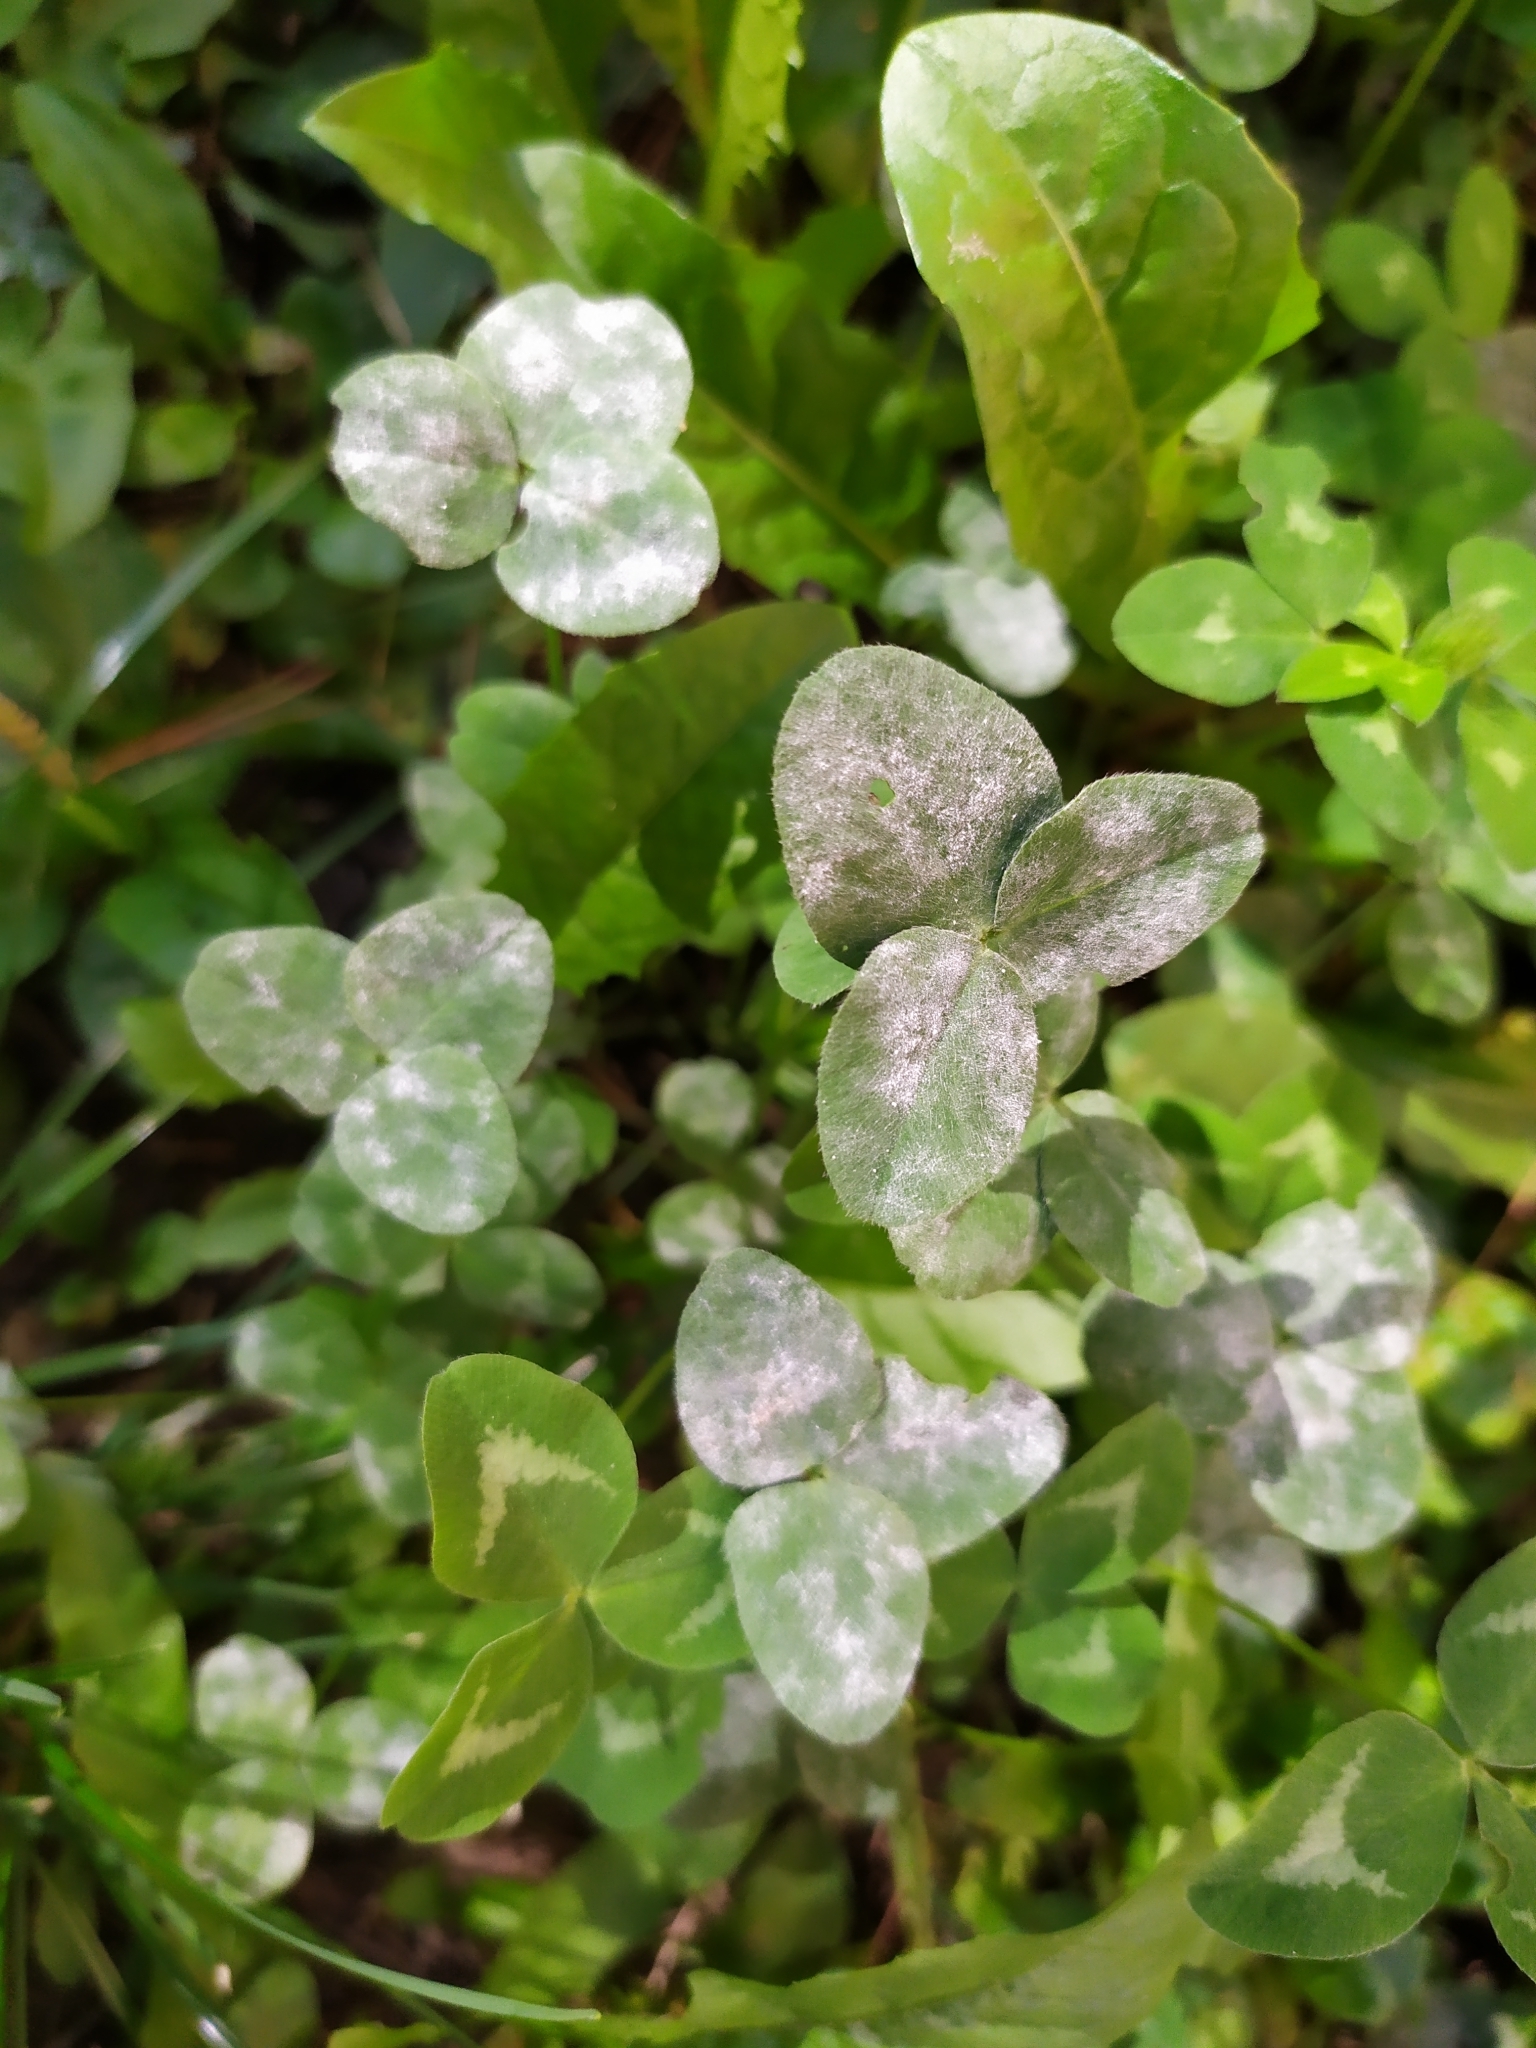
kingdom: Fungi
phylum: Ascomycota
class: Leotiomycetes
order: Helotiales
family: Erysiphaceae
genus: Erysiphe
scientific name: Erysiphe trifoliorum
